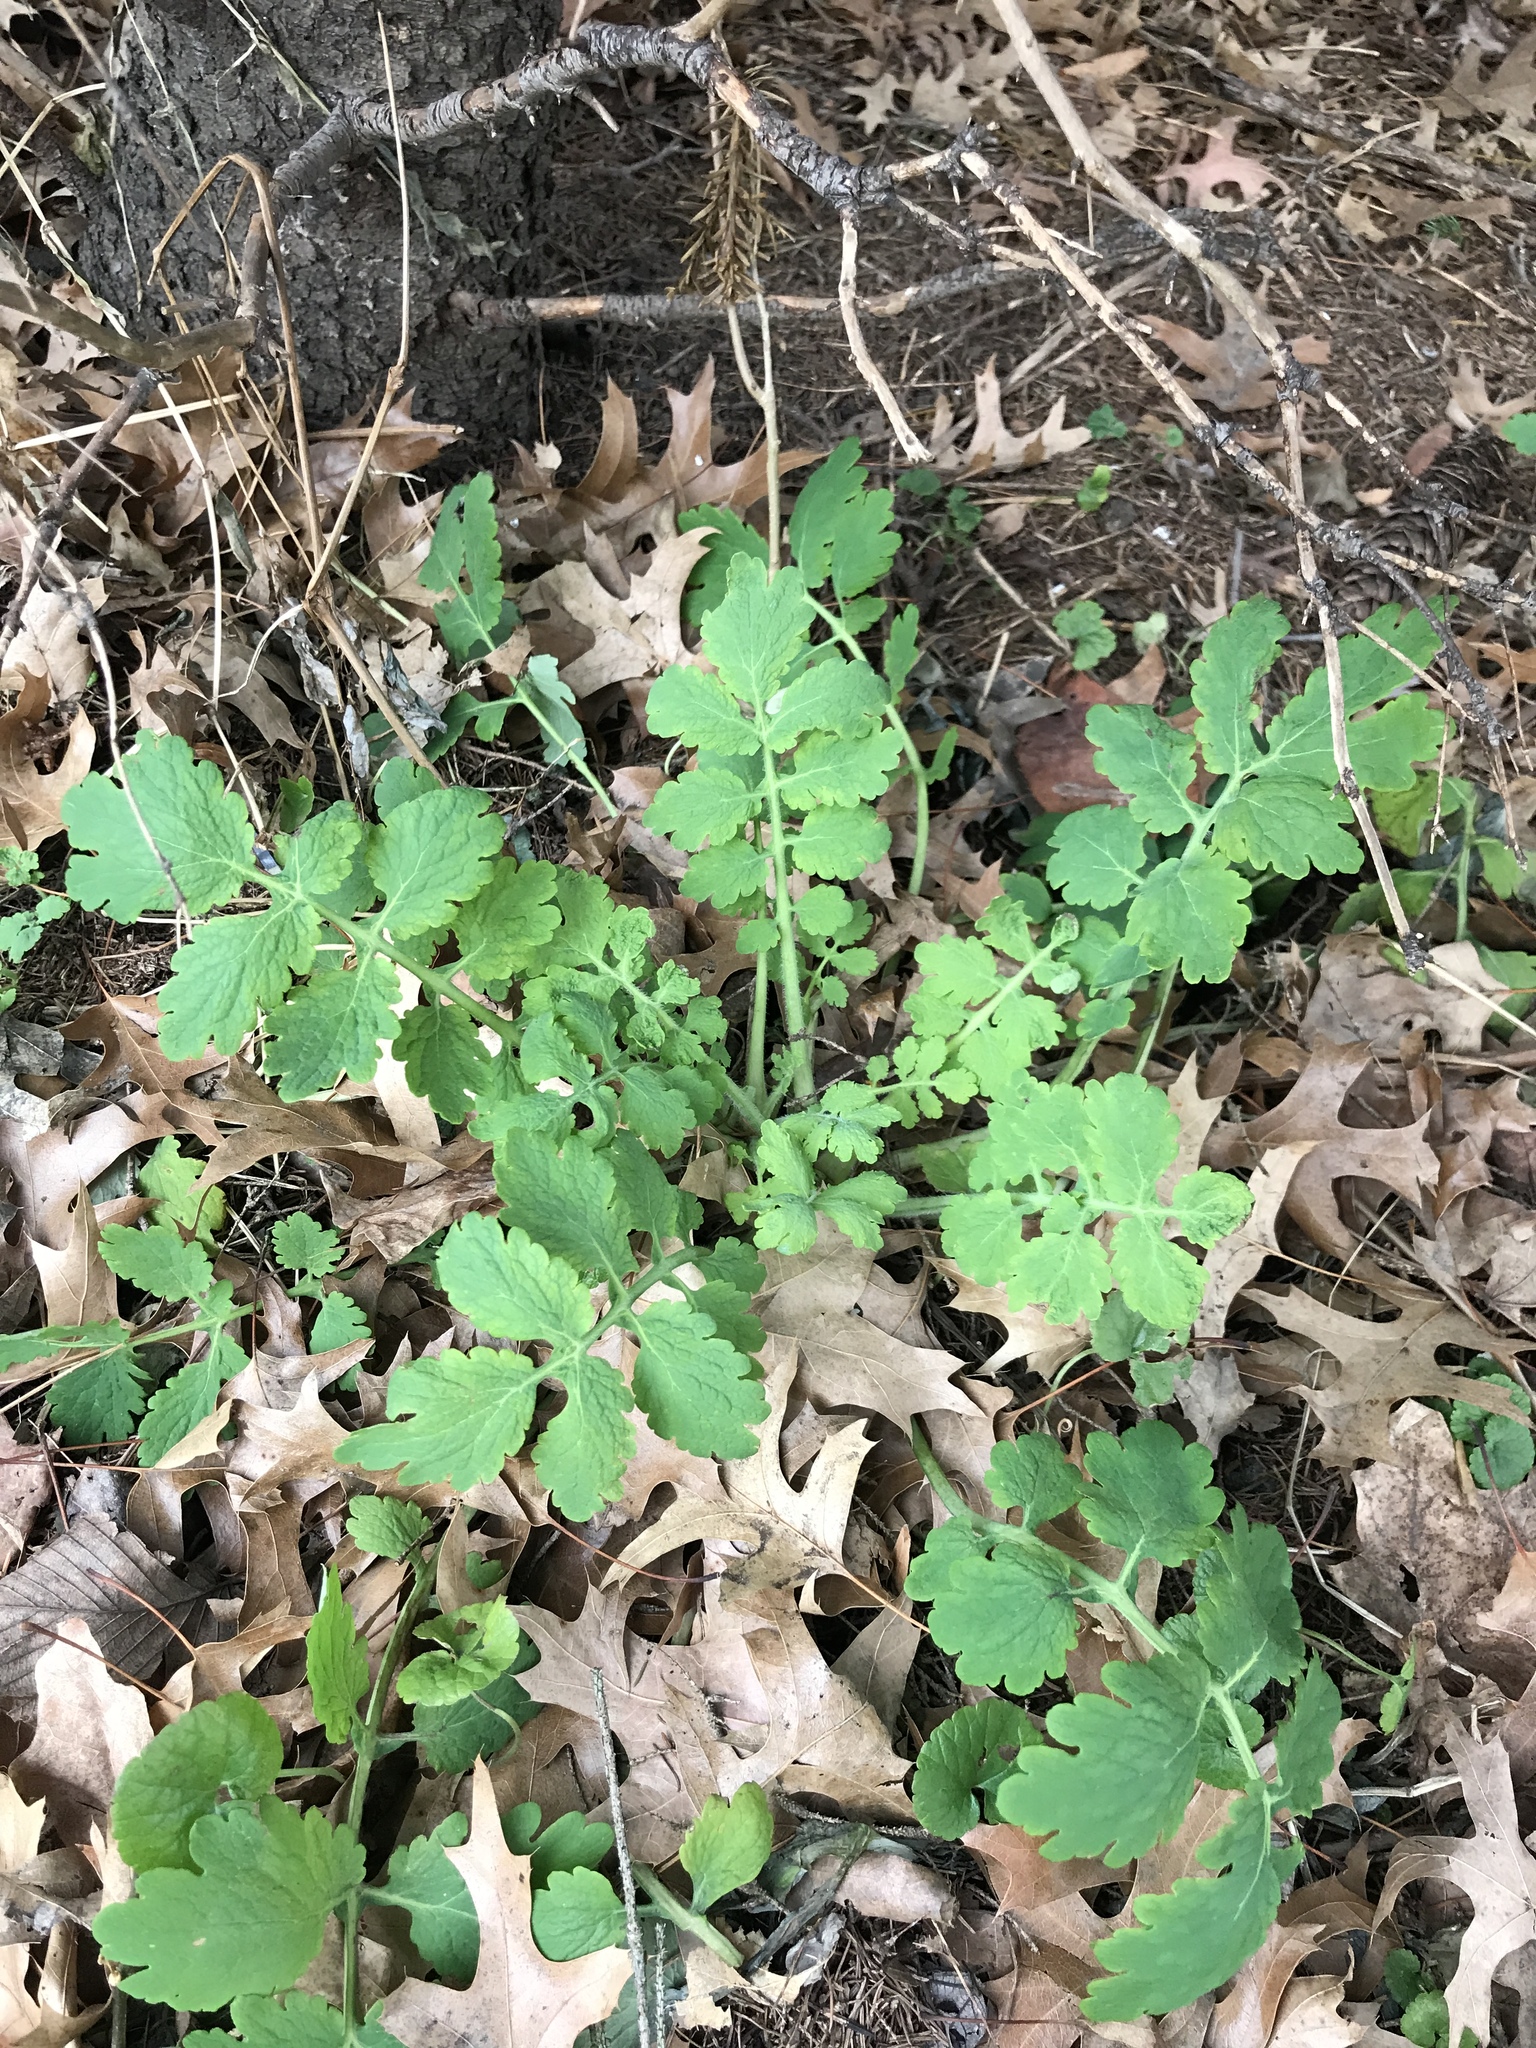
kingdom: Plantae
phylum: Tracheophyta
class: Magnoliopsida
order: Ranunculales
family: Papaveraceae
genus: Chelidonium
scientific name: Chelidonium majus
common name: Greater celandine
